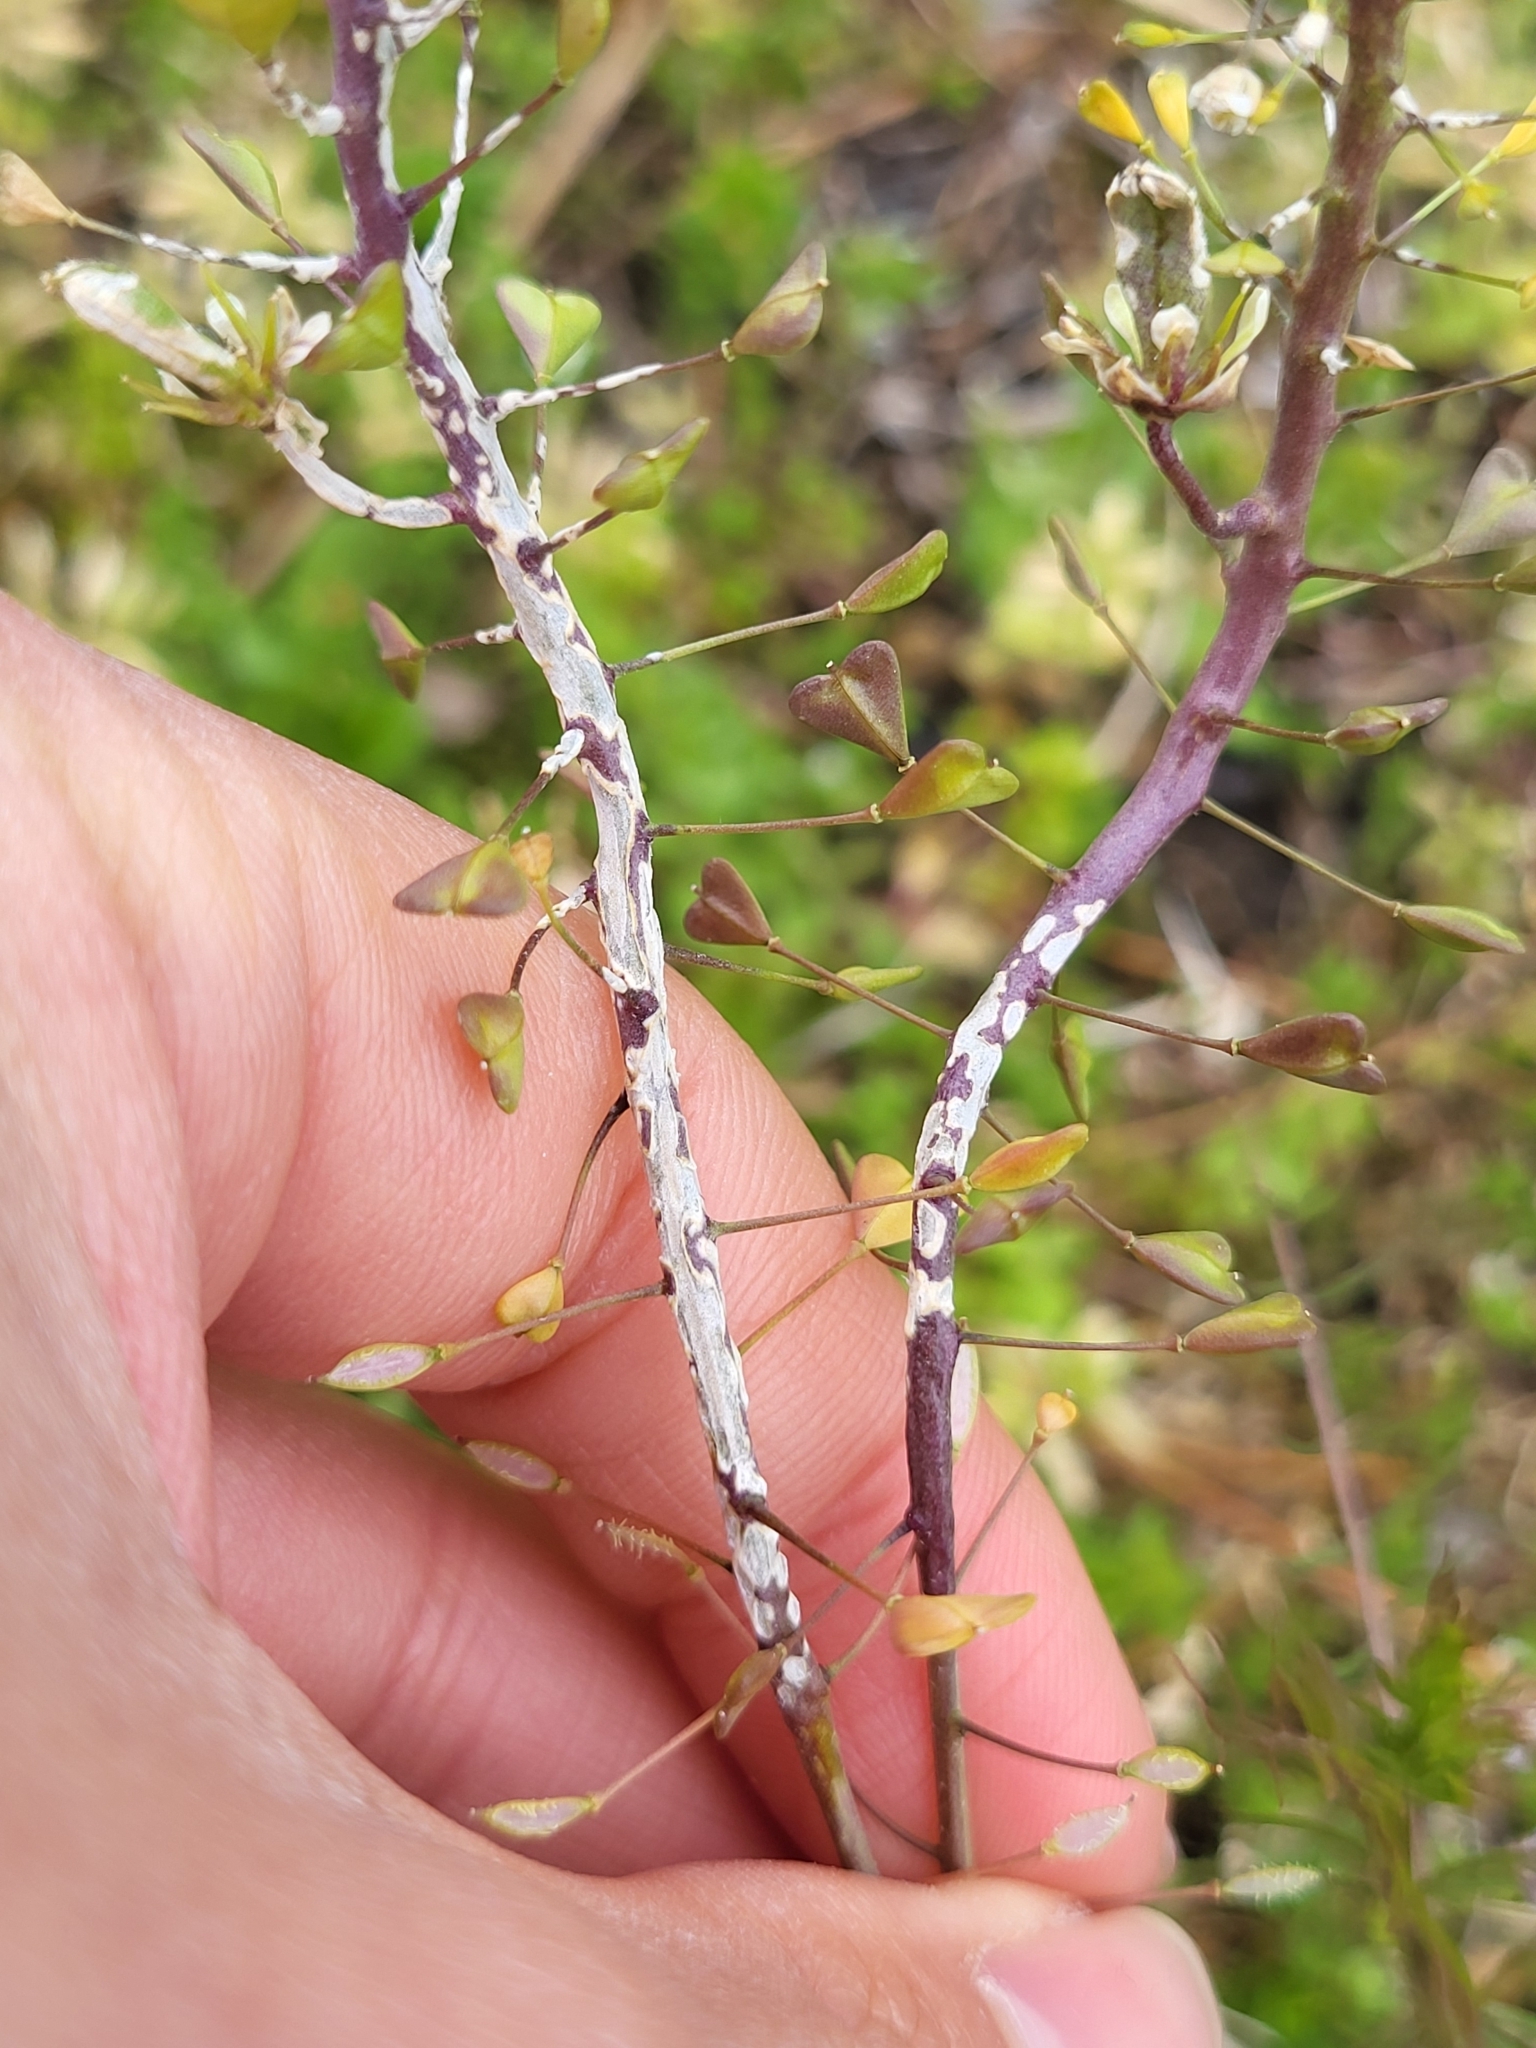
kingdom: Chromista
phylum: Oomycota
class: Peronosporea
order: Albuginales
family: Albuginaceae
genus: Albugo
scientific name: Albugo candida
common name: Crucifer white blister
